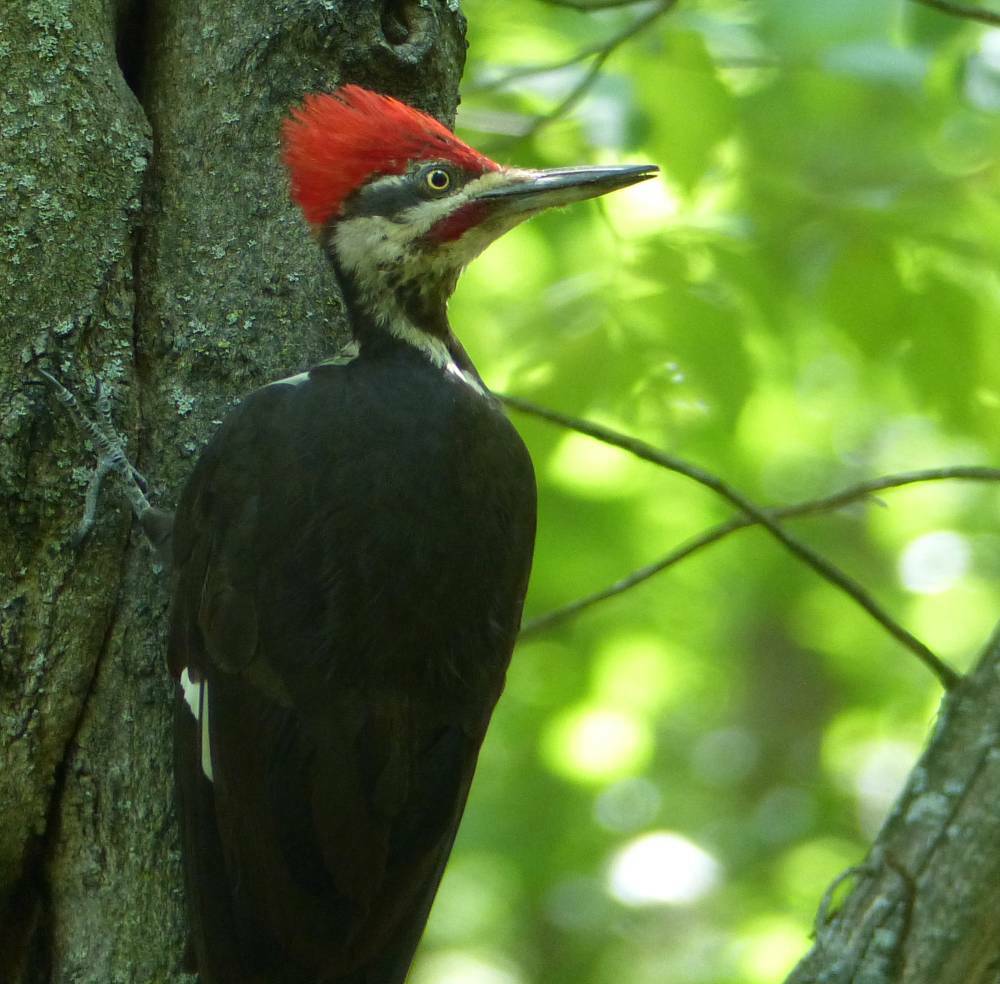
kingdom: Animalia
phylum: Chordata
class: Aves
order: Piciformes
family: Picidae
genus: Dryocopus
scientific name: Dryocopus pileatus
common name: Pileated woodpecker
